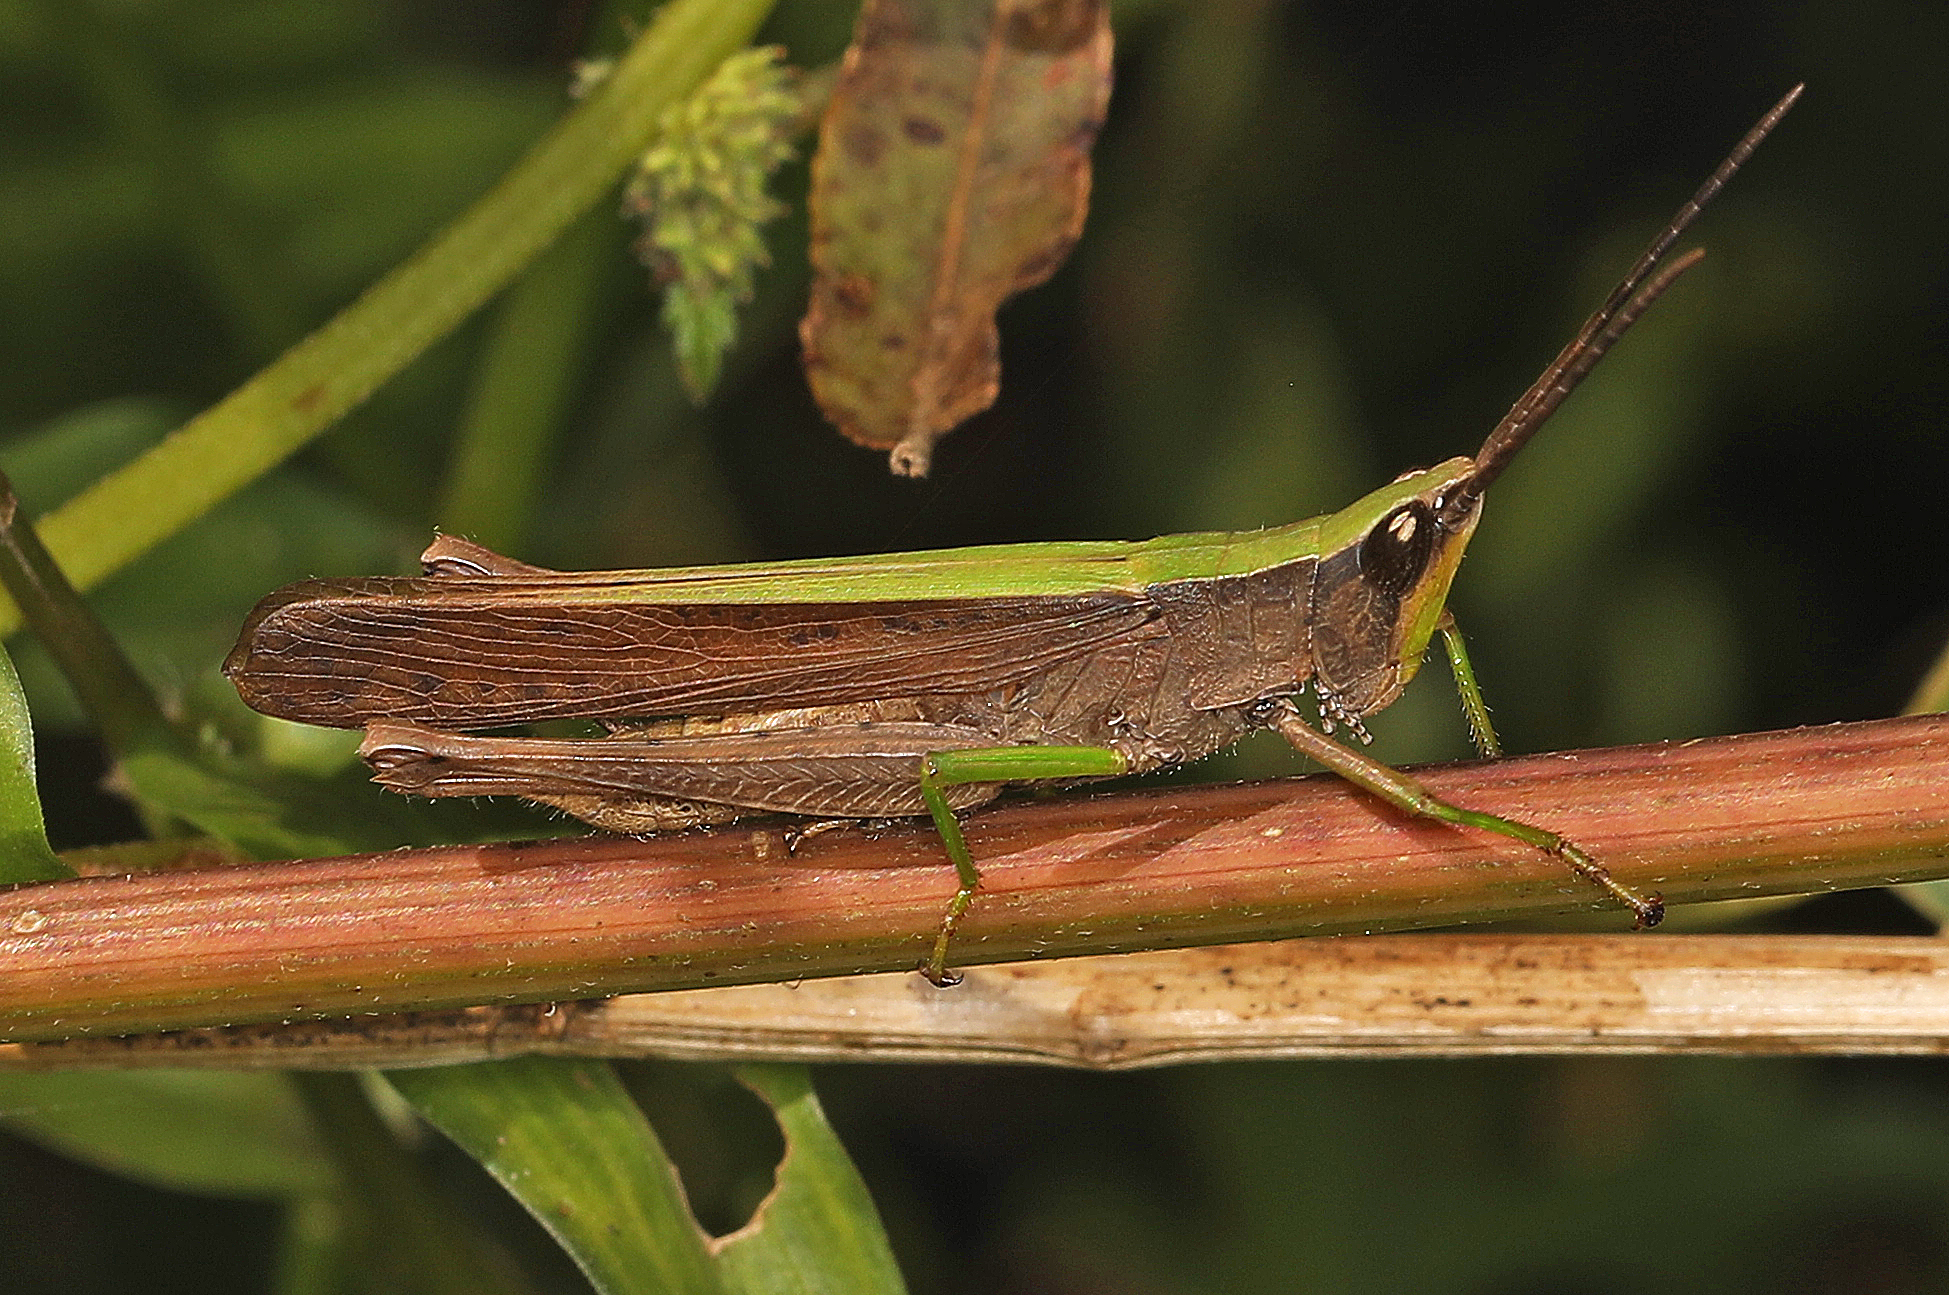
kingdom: Animalia
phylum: Arthropoda
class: Insecta
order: Orthoptera
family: Acrididae
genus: Metaleptea
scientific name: Metaleptea brevicornis
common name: Clipped-wing grasshopper
